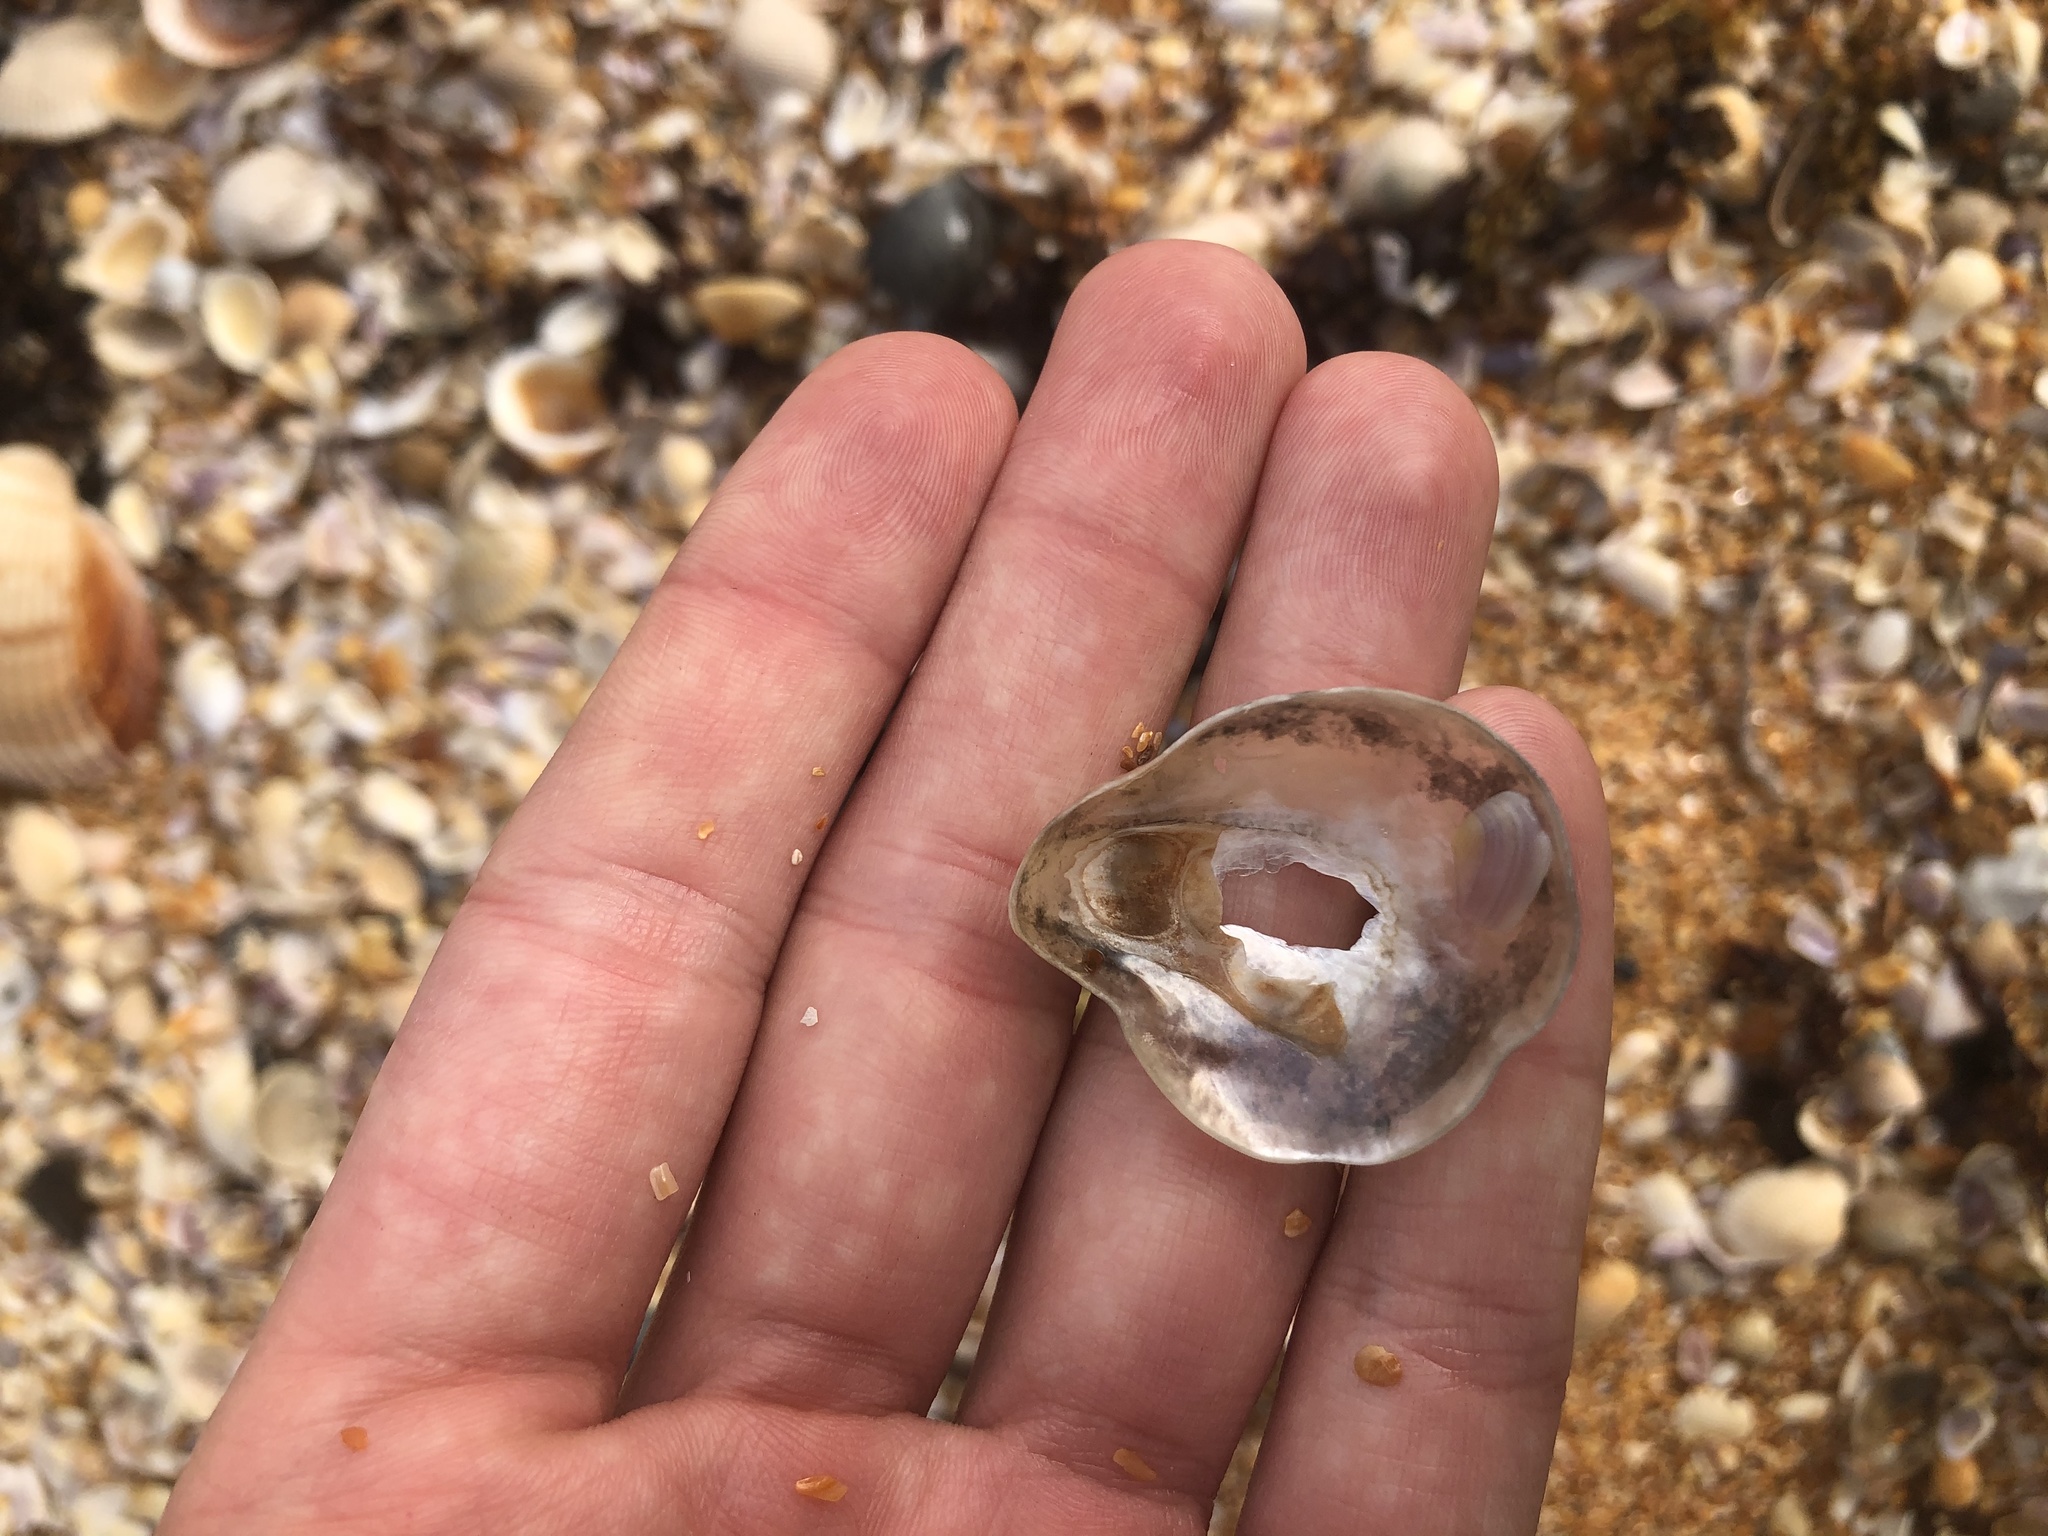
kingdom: Animalia
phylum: Mollusca
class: Bivalvia
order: Pectinida
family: Anomiidae
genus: Anomia
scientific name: Anomia simplex
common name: Common jingle shell
